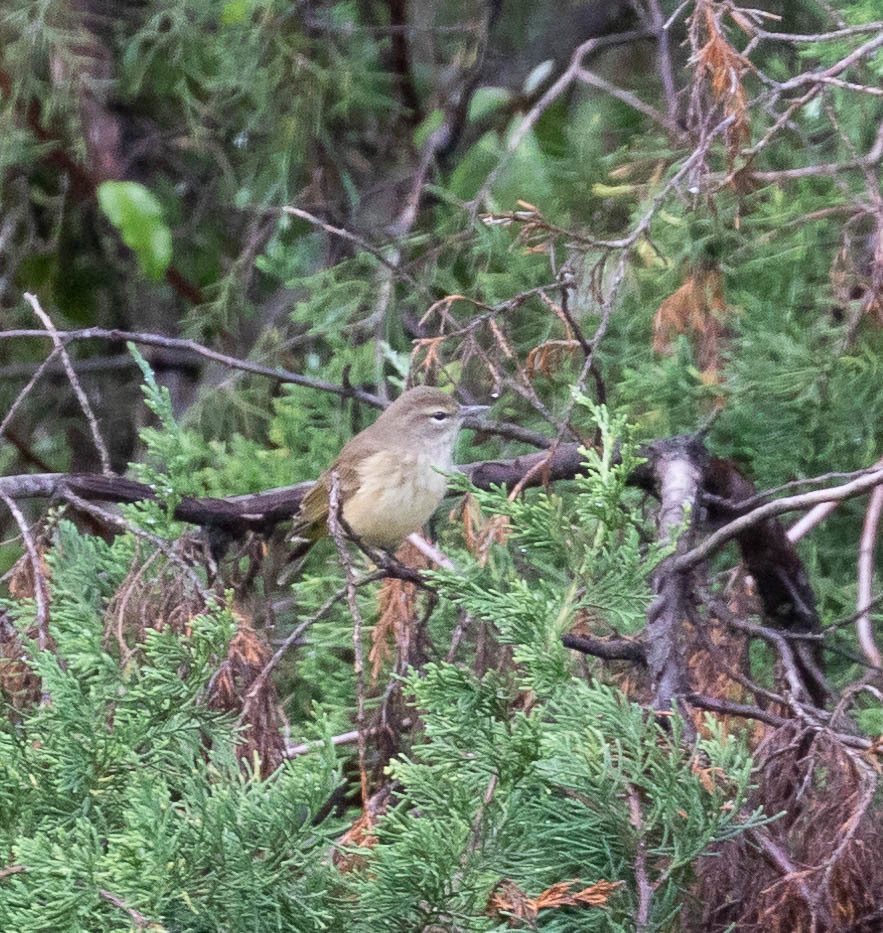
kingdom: Animalia
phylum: Chordata
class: Aves
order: Passeriformes
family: Parulidae
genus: Setophaga
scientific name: Setophaga palmarum
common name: Palm warbler
